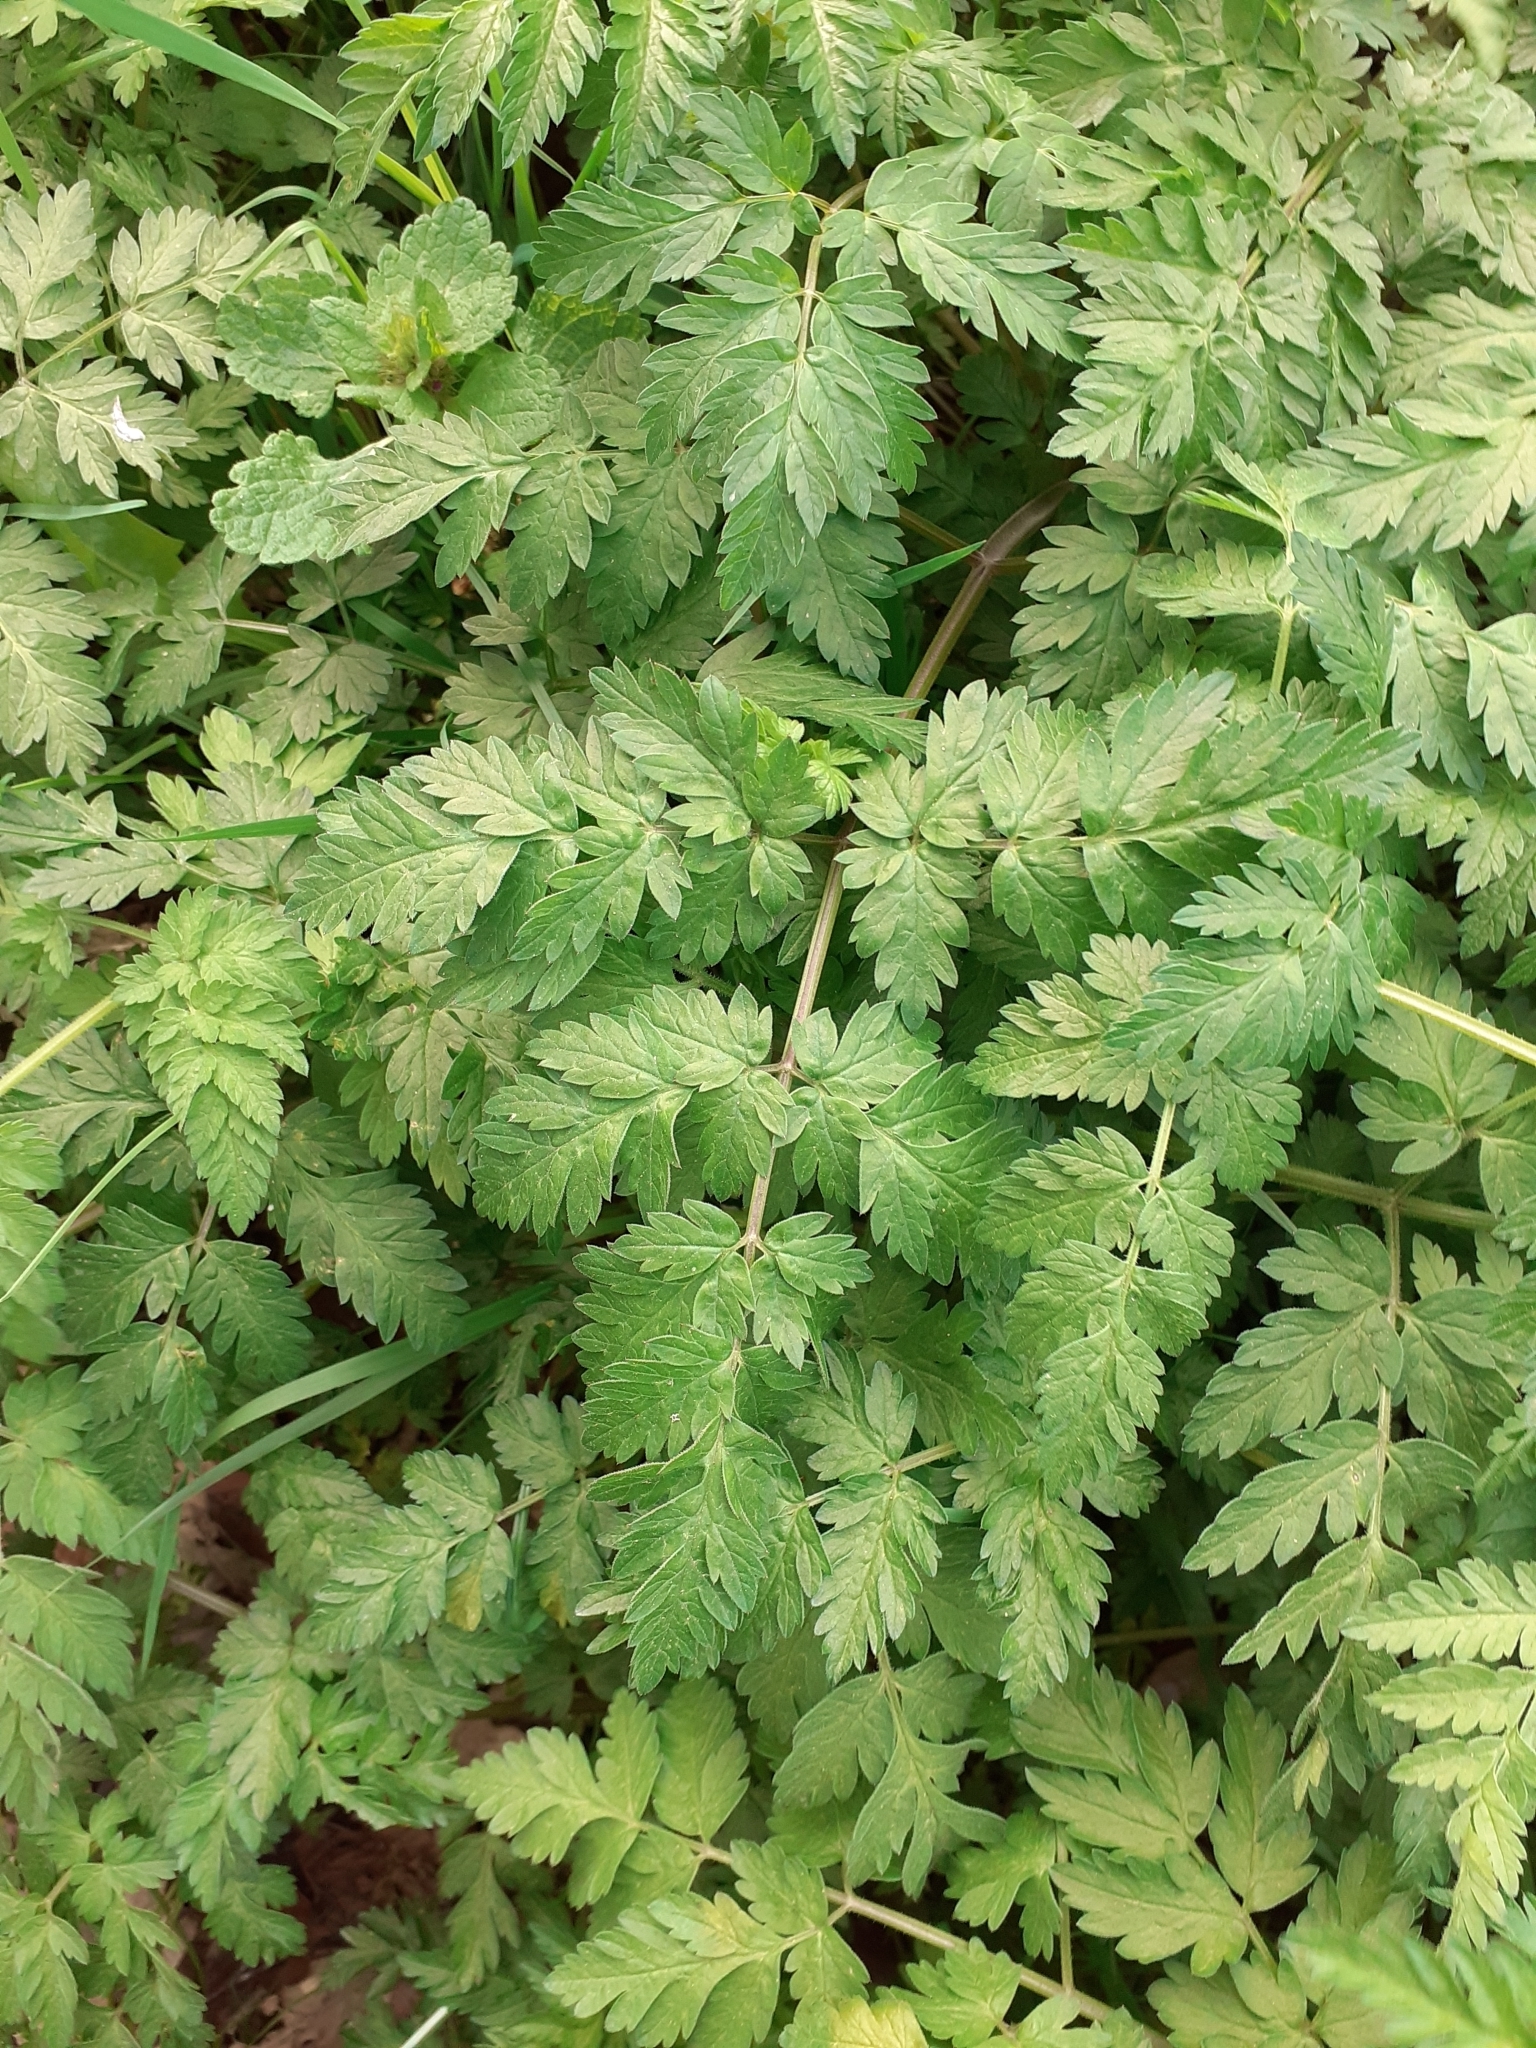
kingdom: Plantae
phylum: Tracheophyta
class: Magnoliopsida
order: Apiales
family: Apiaceae
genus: Anthriscus
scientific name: Anthriscus sylvestris
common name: Cow parsley
